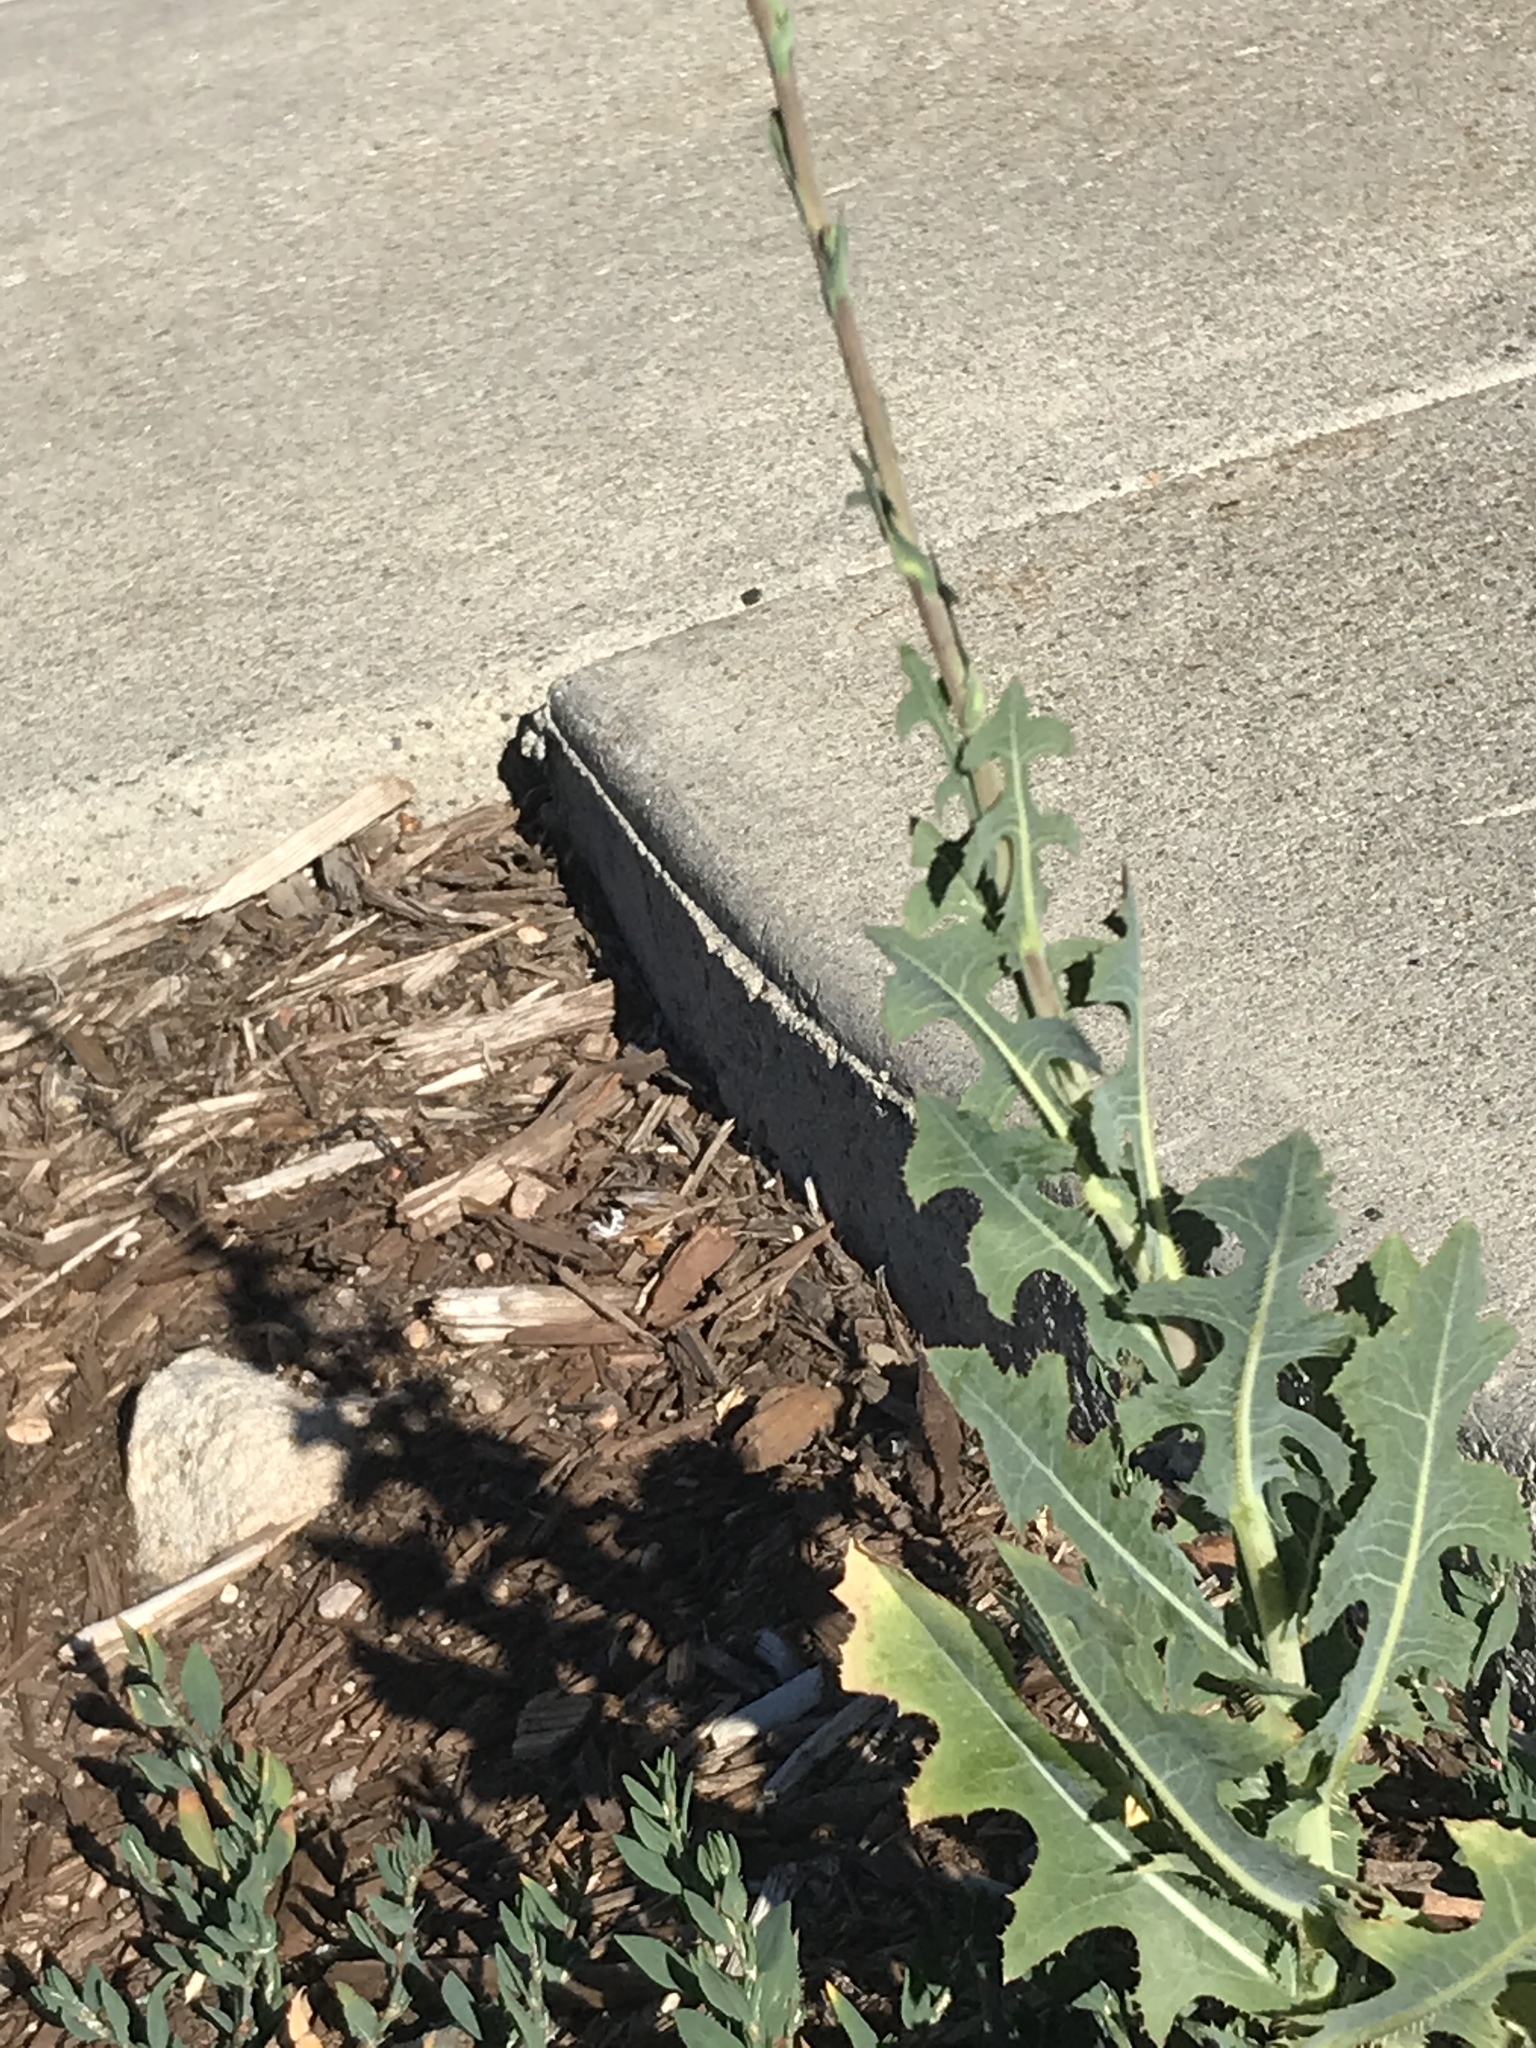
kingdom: Plantae
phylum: Tracheophyta
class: Magnoliopsida
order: Asterales
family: Asteraceae
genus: Lactuca
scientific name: Lactuca serriola
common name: Prickly lettuce
